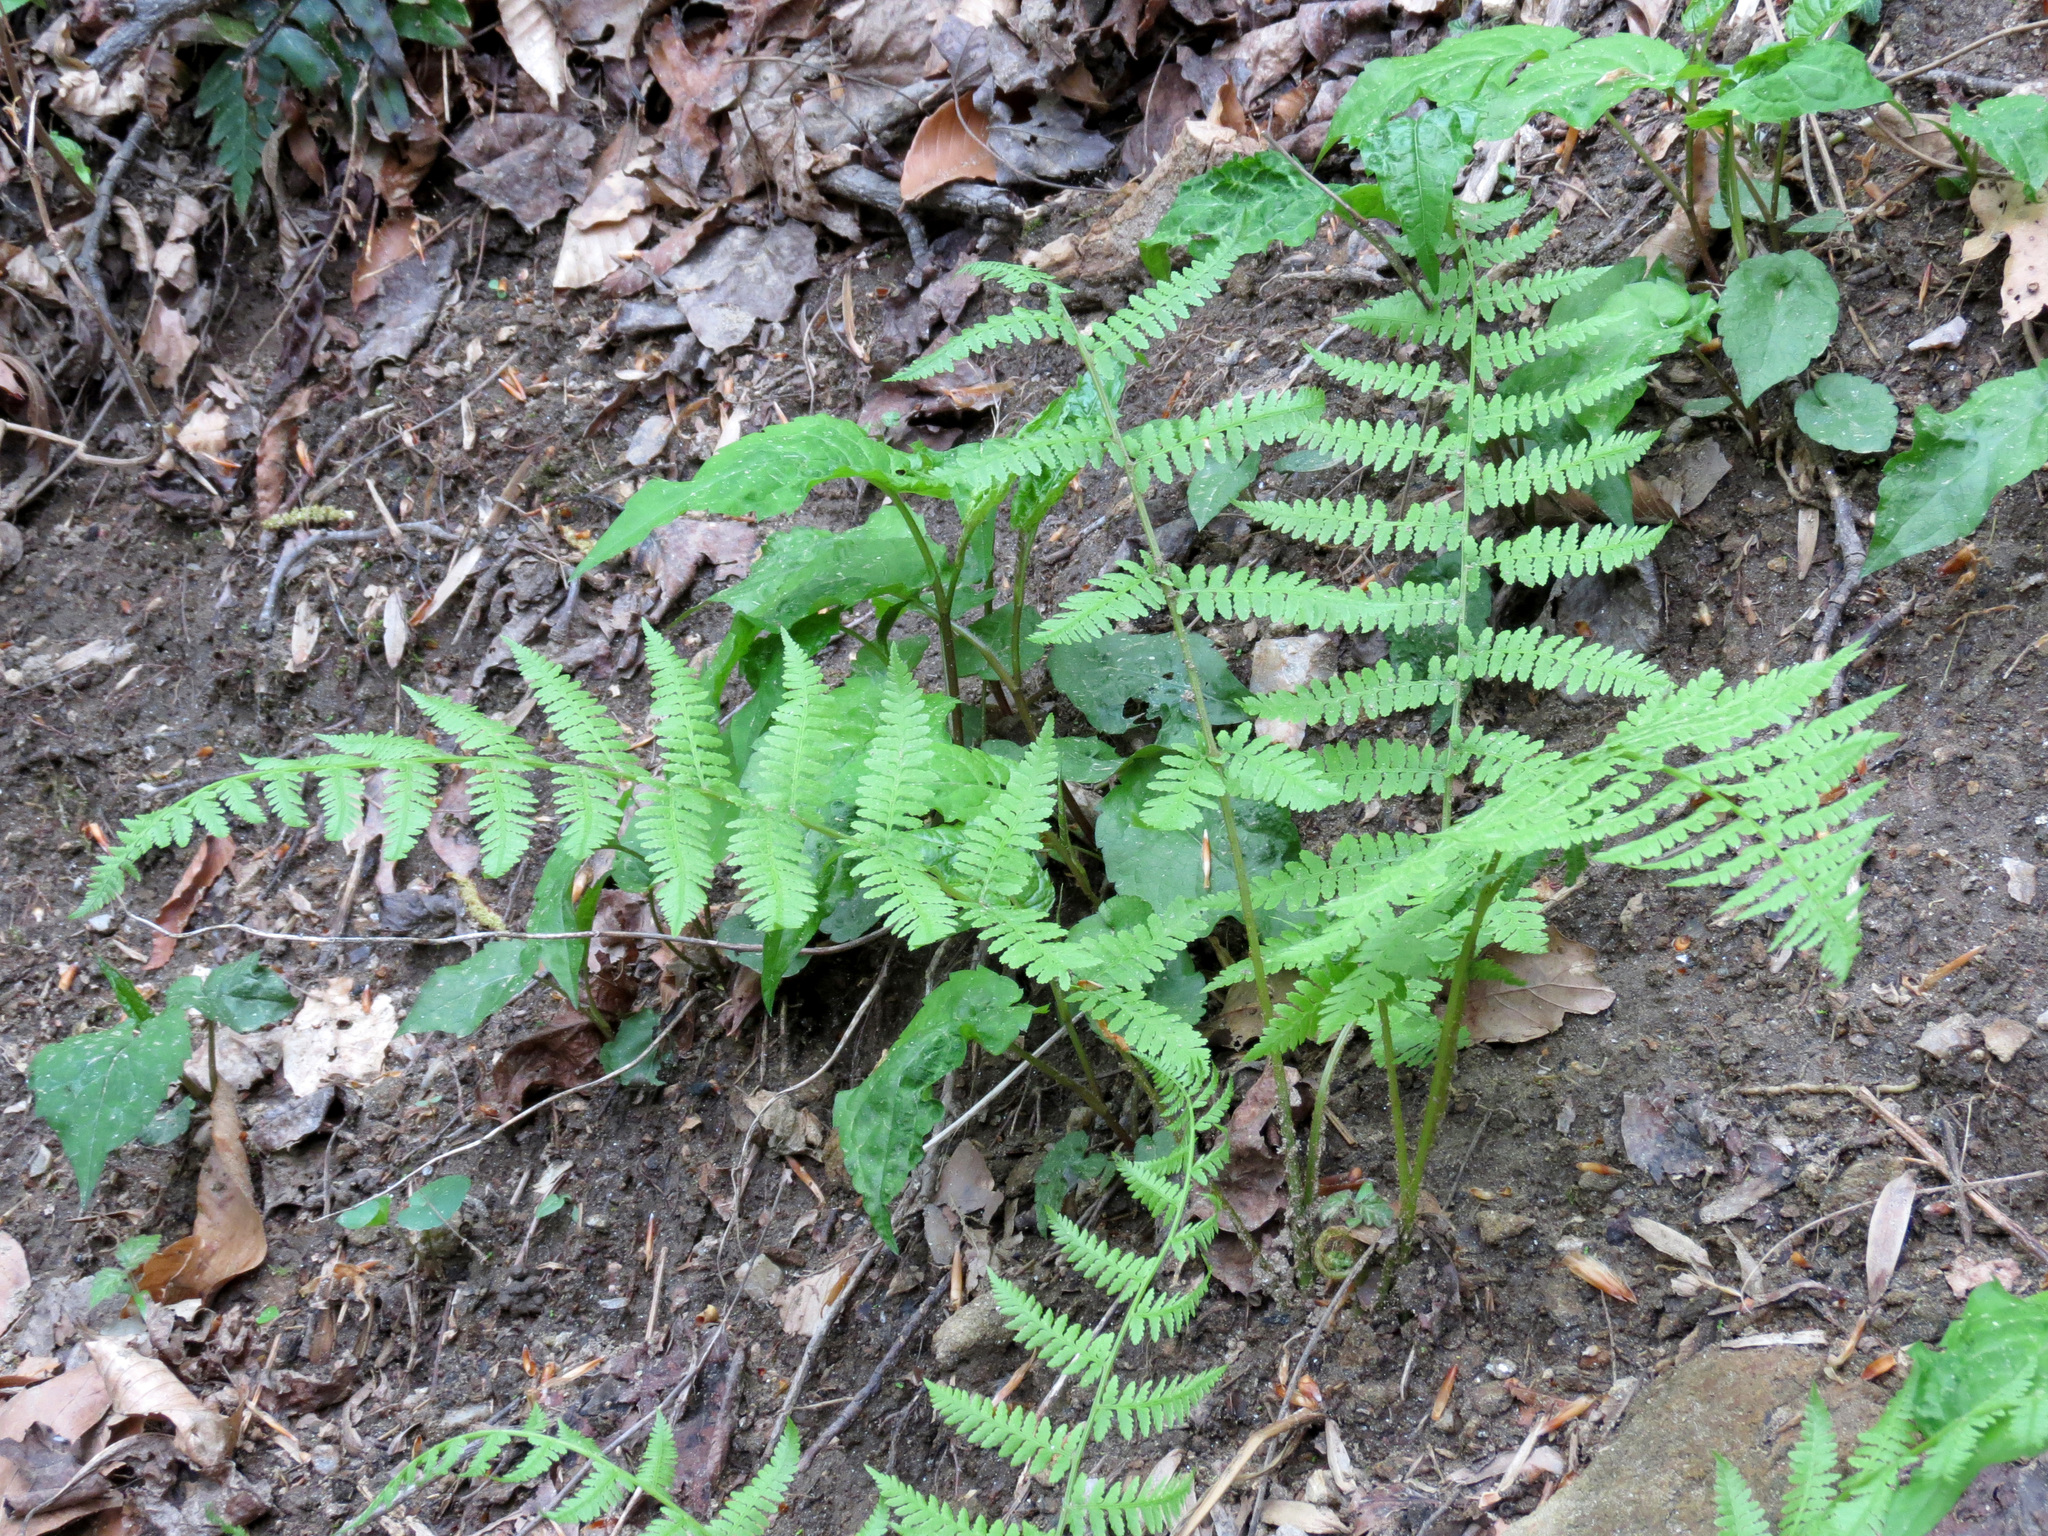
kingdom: Plantae
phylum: Tracheophyta
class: Polypodiopsida
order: Polypodiales
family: Athyriaceae
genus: Athyrium
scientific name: Athyrium asplenioides
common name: Southern lady fern
